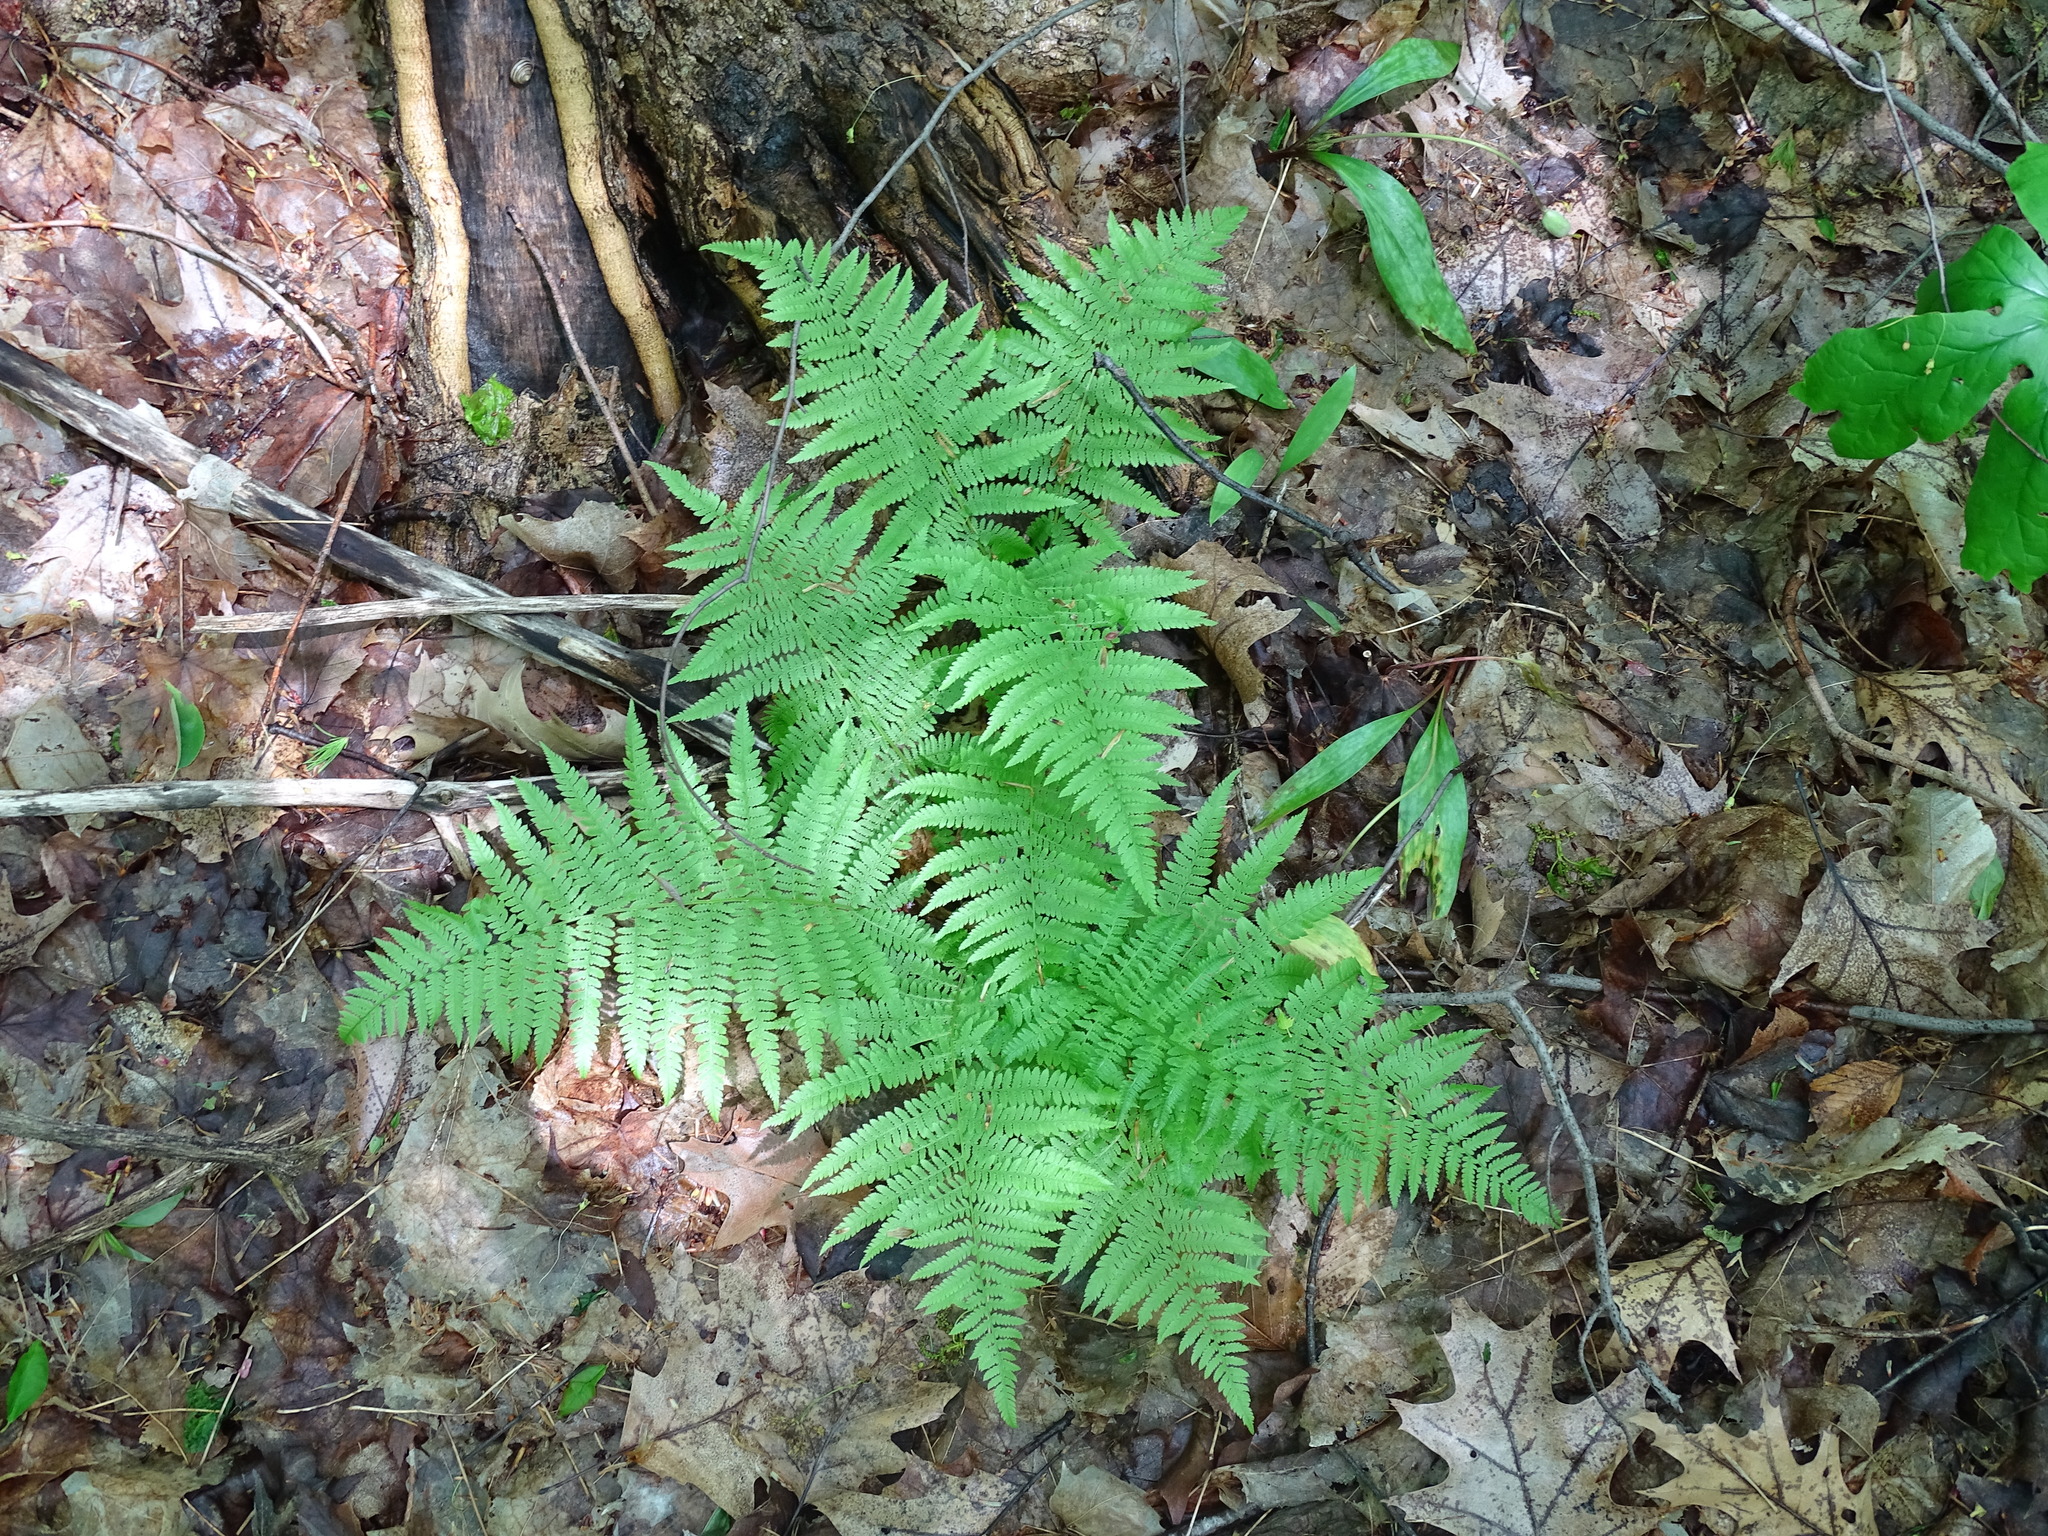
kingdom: Plantae
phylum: Tracheophyta
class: Polypodiopsida
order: Polypodiales
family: Athyriaceae
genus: Athyrium
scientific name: Athyrium angustum
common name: Northern lady fern
